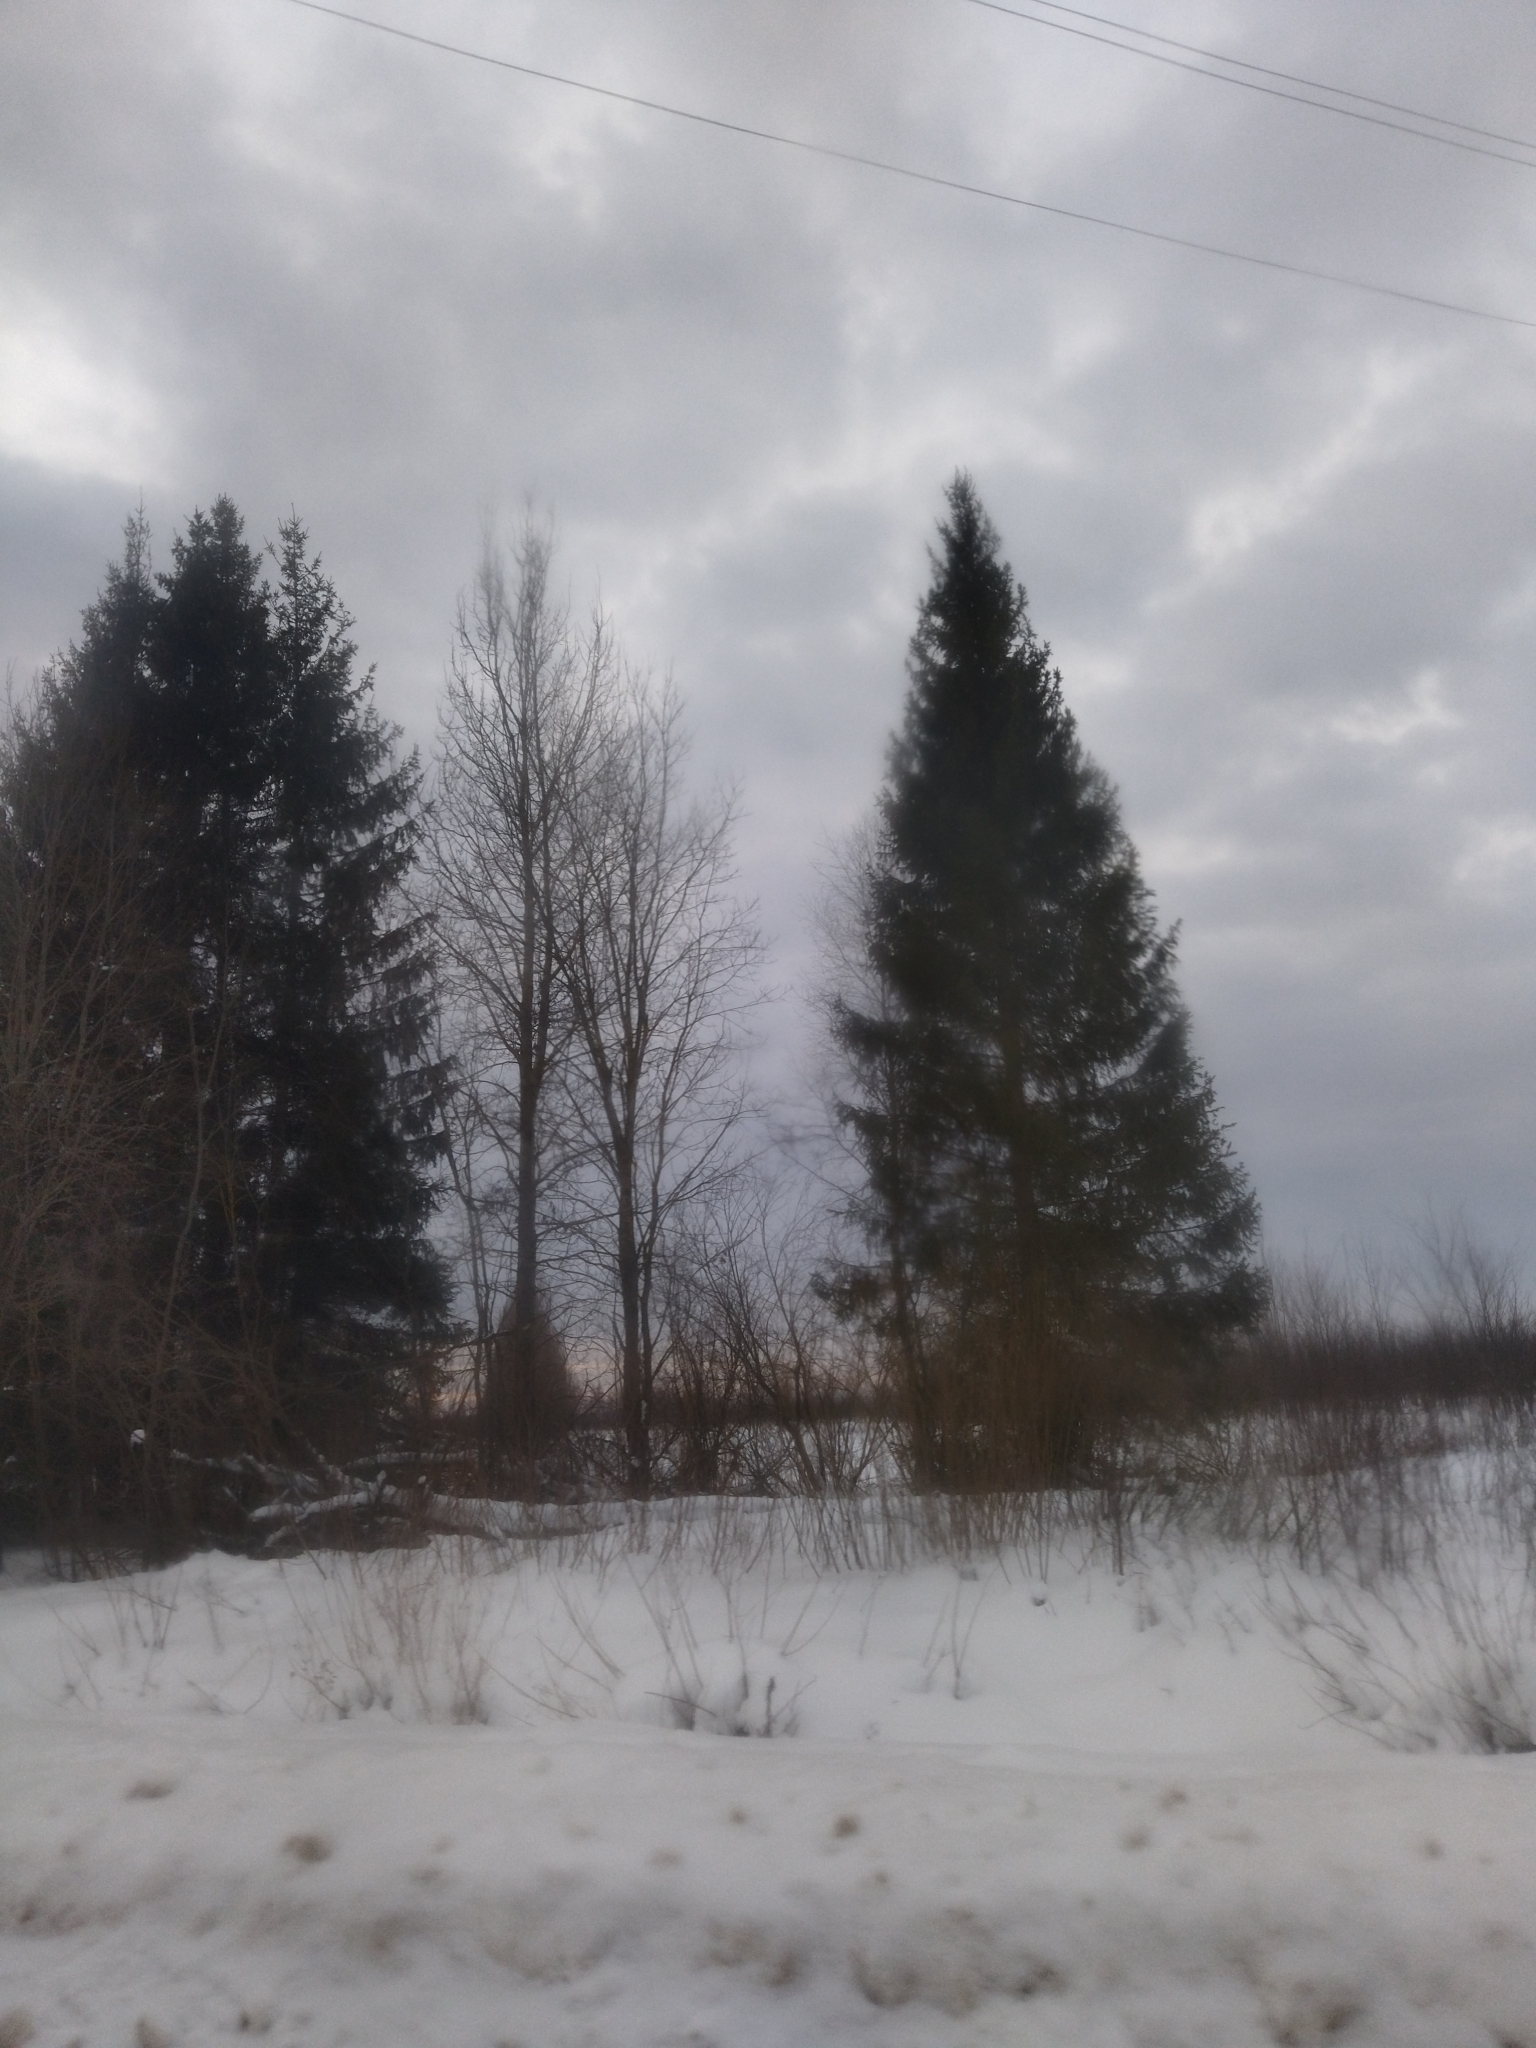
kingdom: Plantae
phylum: Tracheophyta
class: Pinopsida
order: Pinales
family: Pinaceae
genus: Picea
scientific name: Picea abies
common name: Norway spruce
